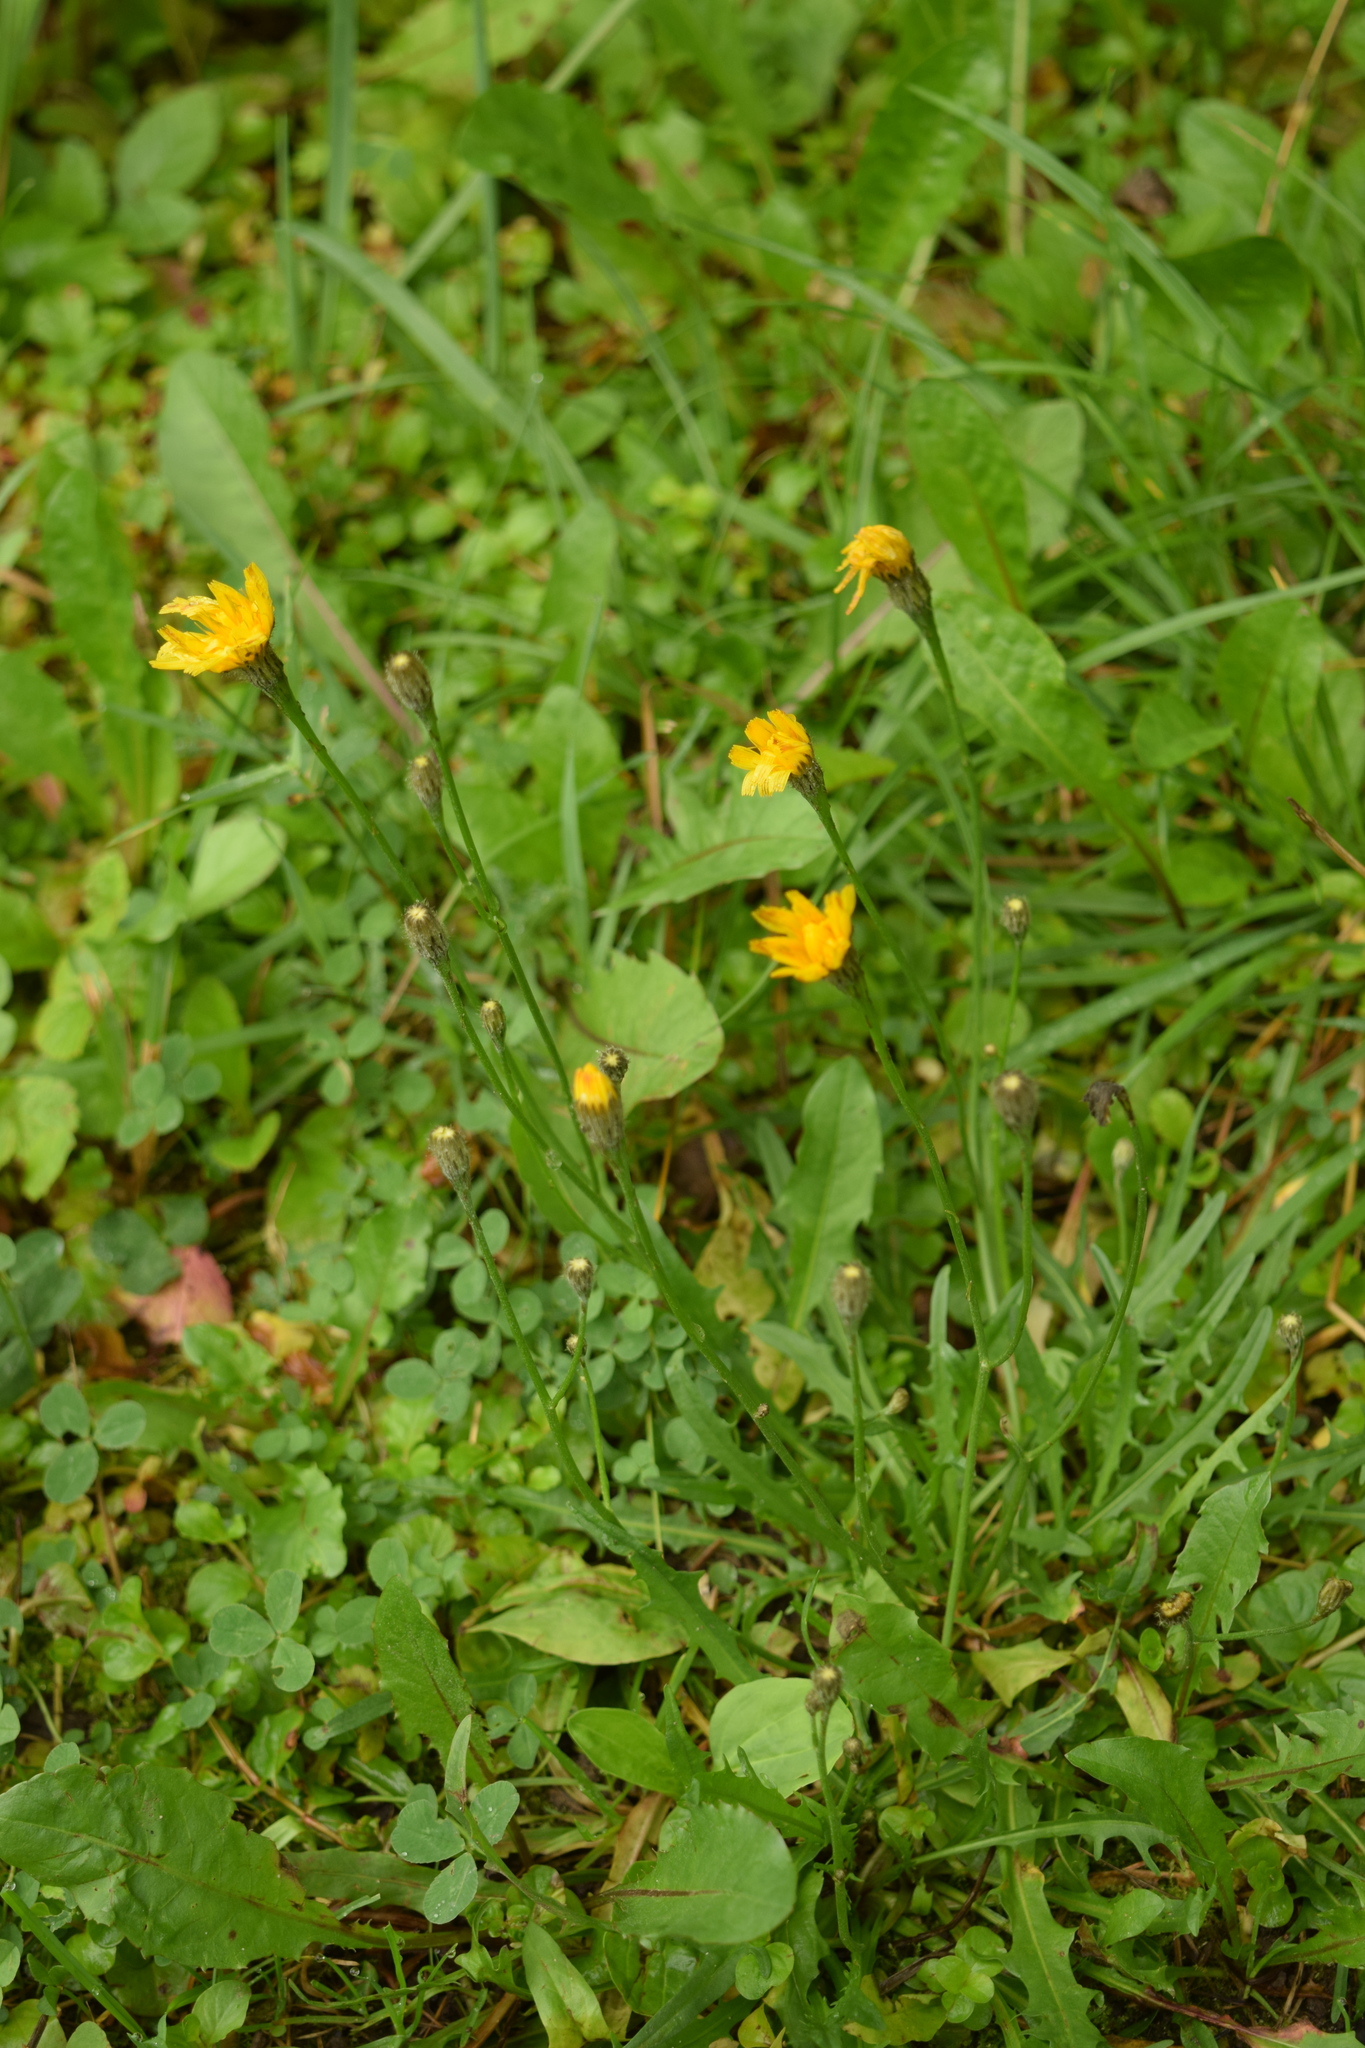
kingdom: Plantae
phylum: Tracheophyta
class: Magnoliopsida
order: Asterales
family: Asteraceae
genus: Scorzoneroides
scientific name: Scorzoneroides autumnalis
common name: Autumn hawkbit
